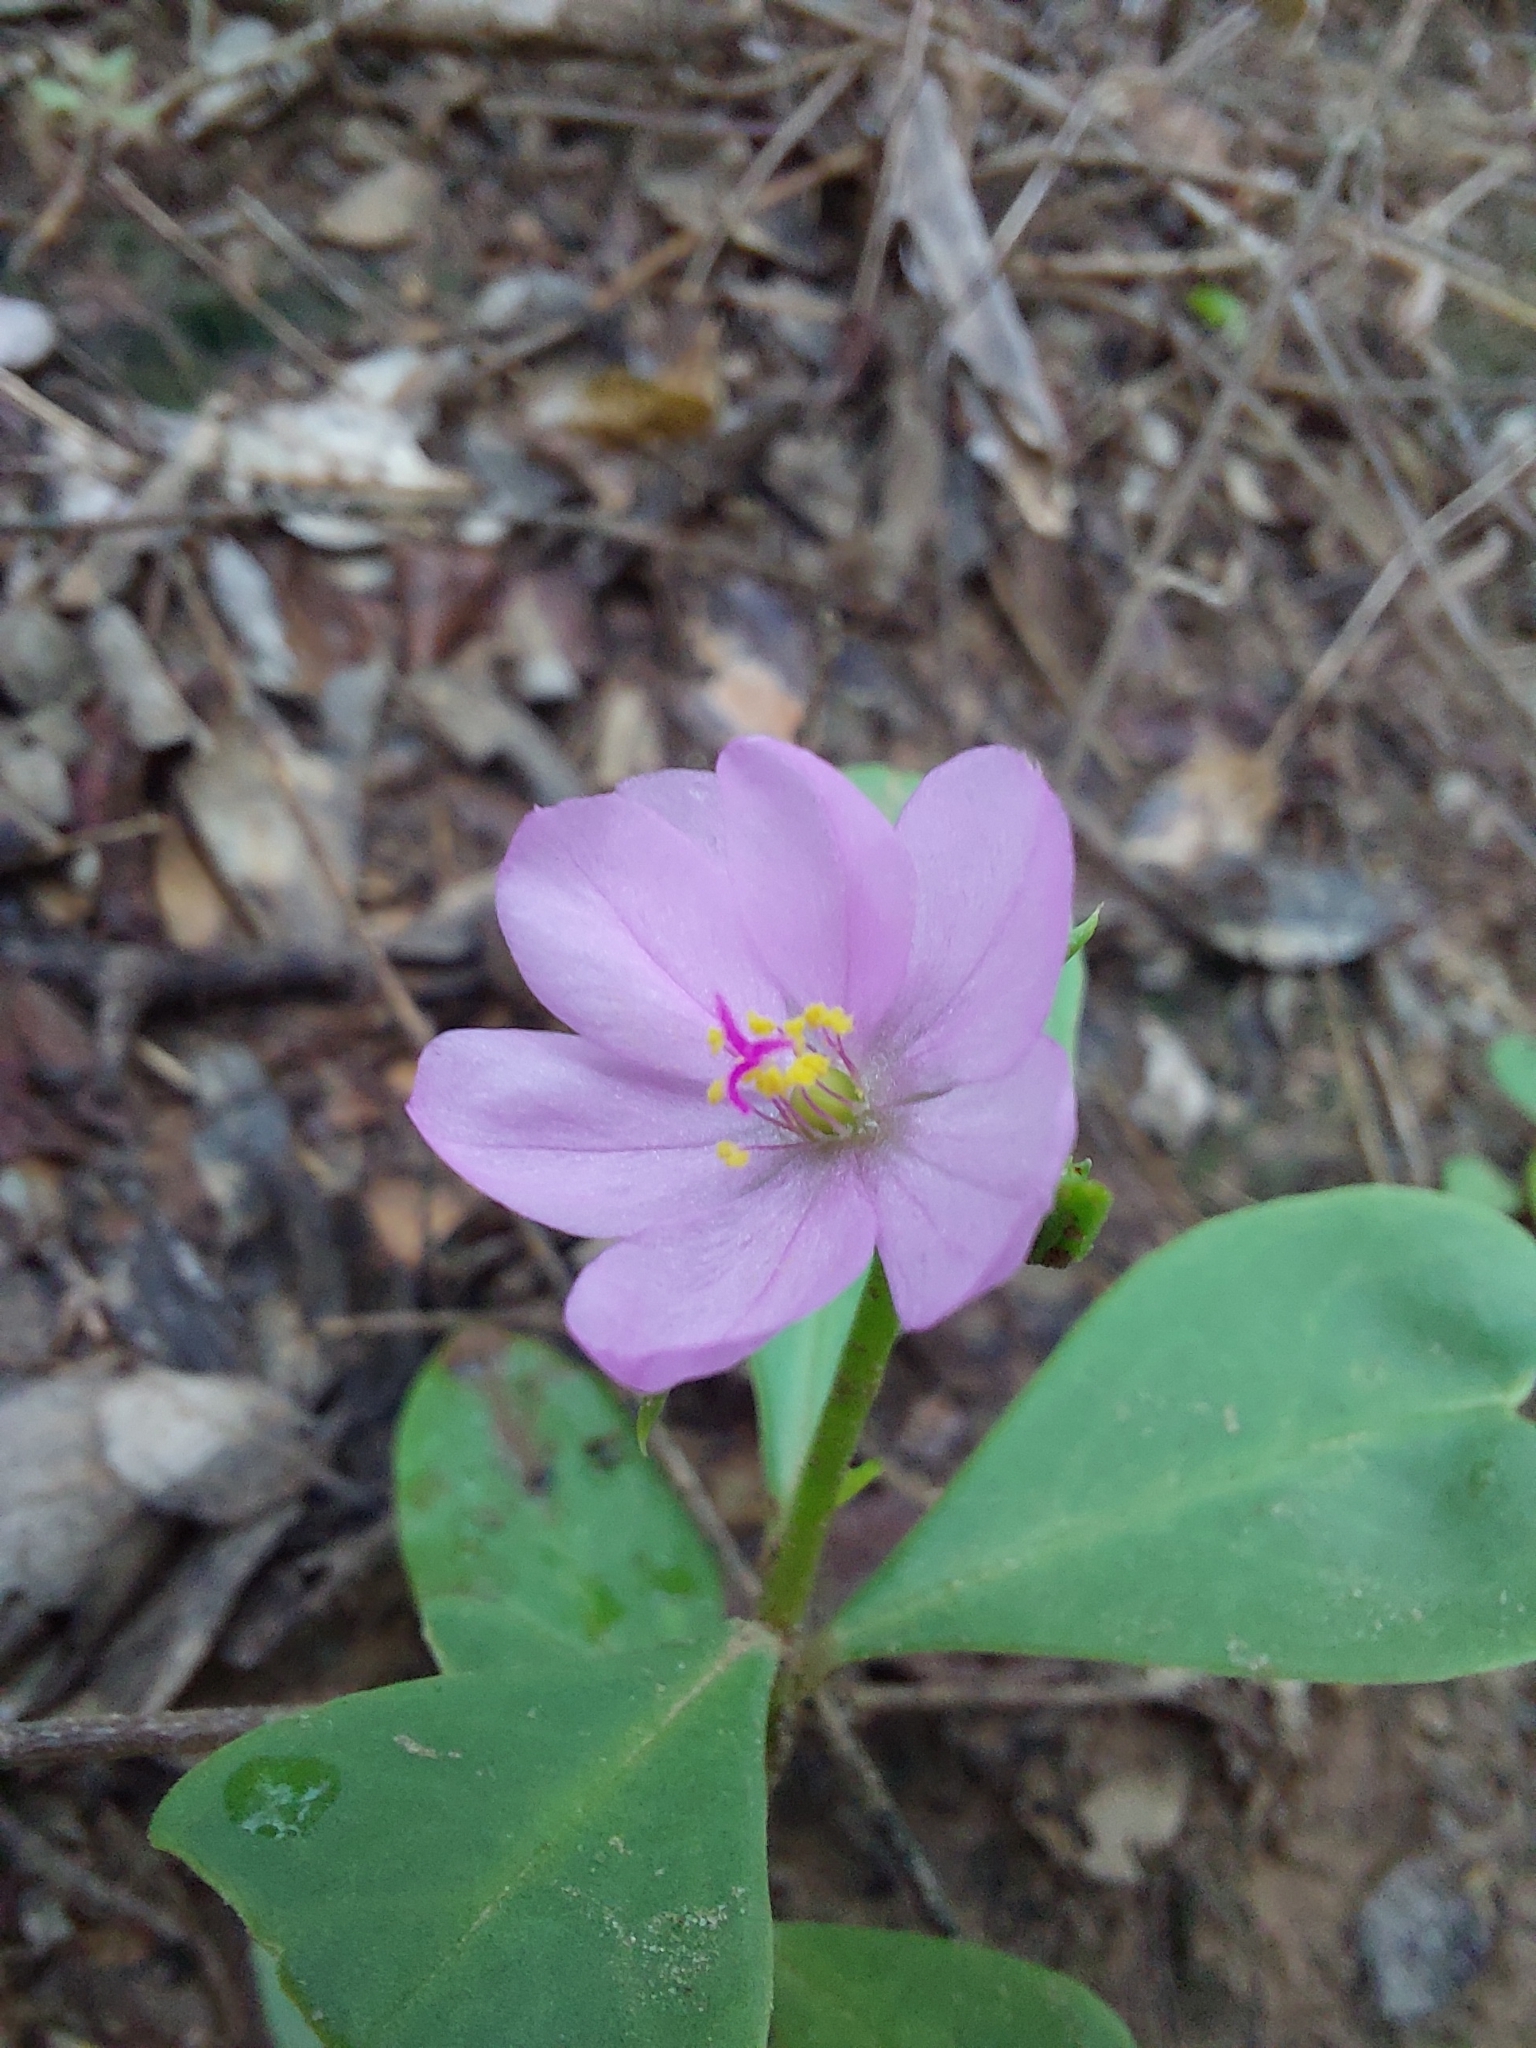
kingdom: Plantae
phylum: Tracheophyta
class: Magnoliopsida
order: Caryophyllales
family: Talinaceae
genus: Talinum
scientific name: Talinum fruticosum
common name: Verdolaga-francesa
